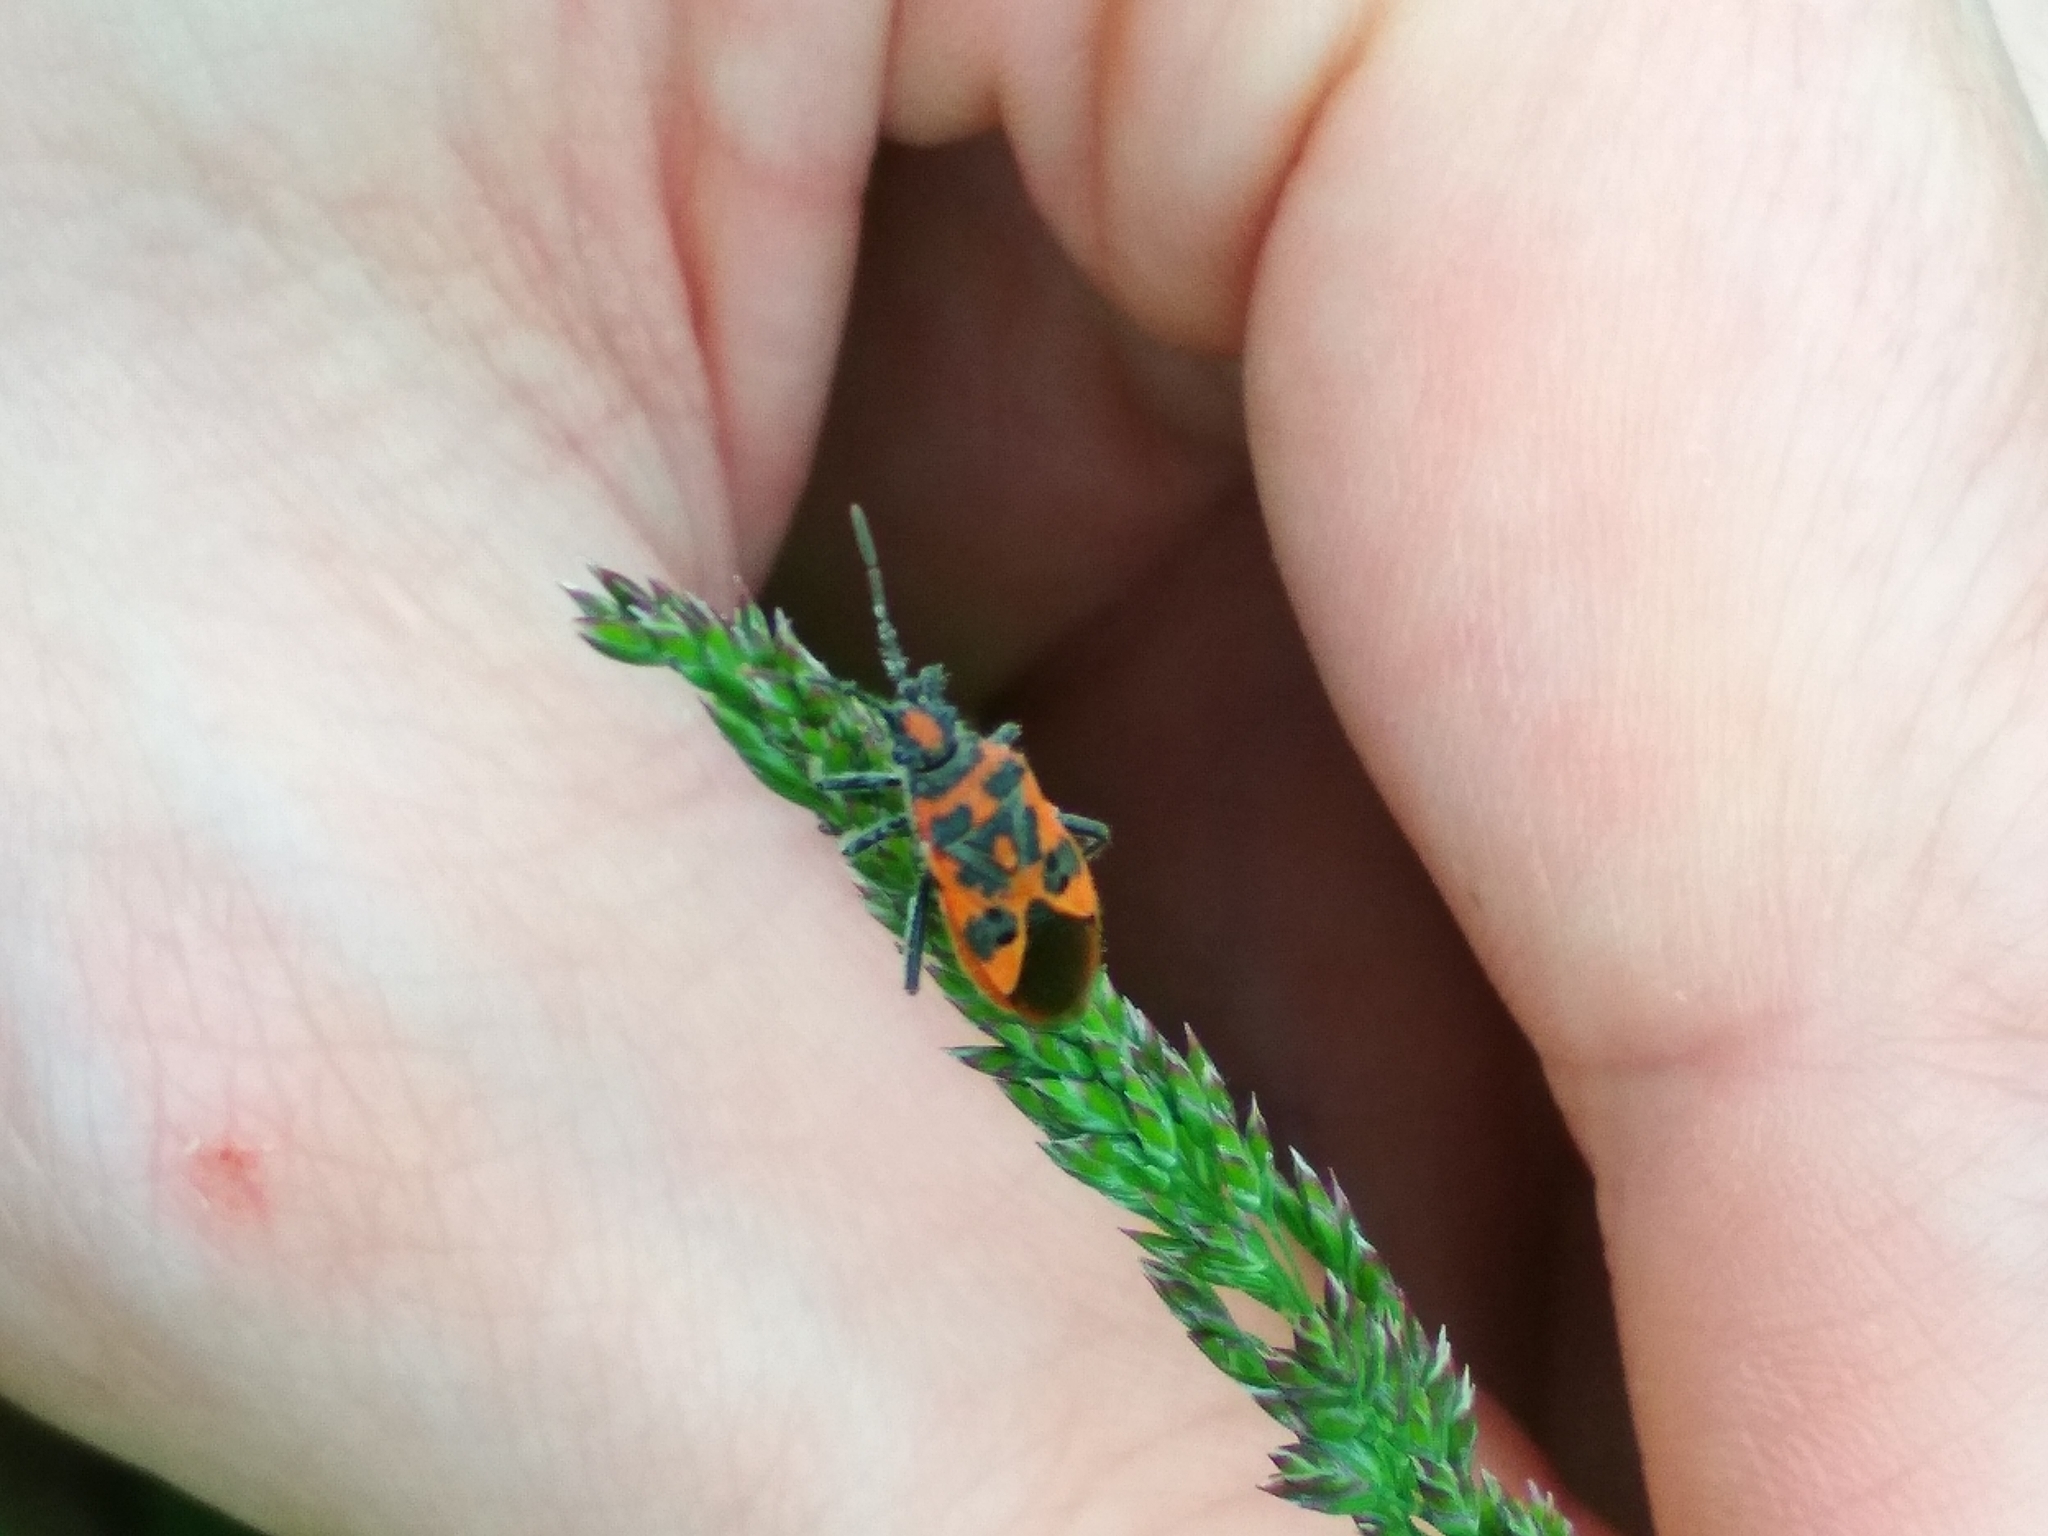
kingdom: Animalia
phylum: Arthropoda
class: Insecta
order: Hemiptera
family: Rhopalidae
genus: Corizus
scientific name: Corizus hyoscyami
